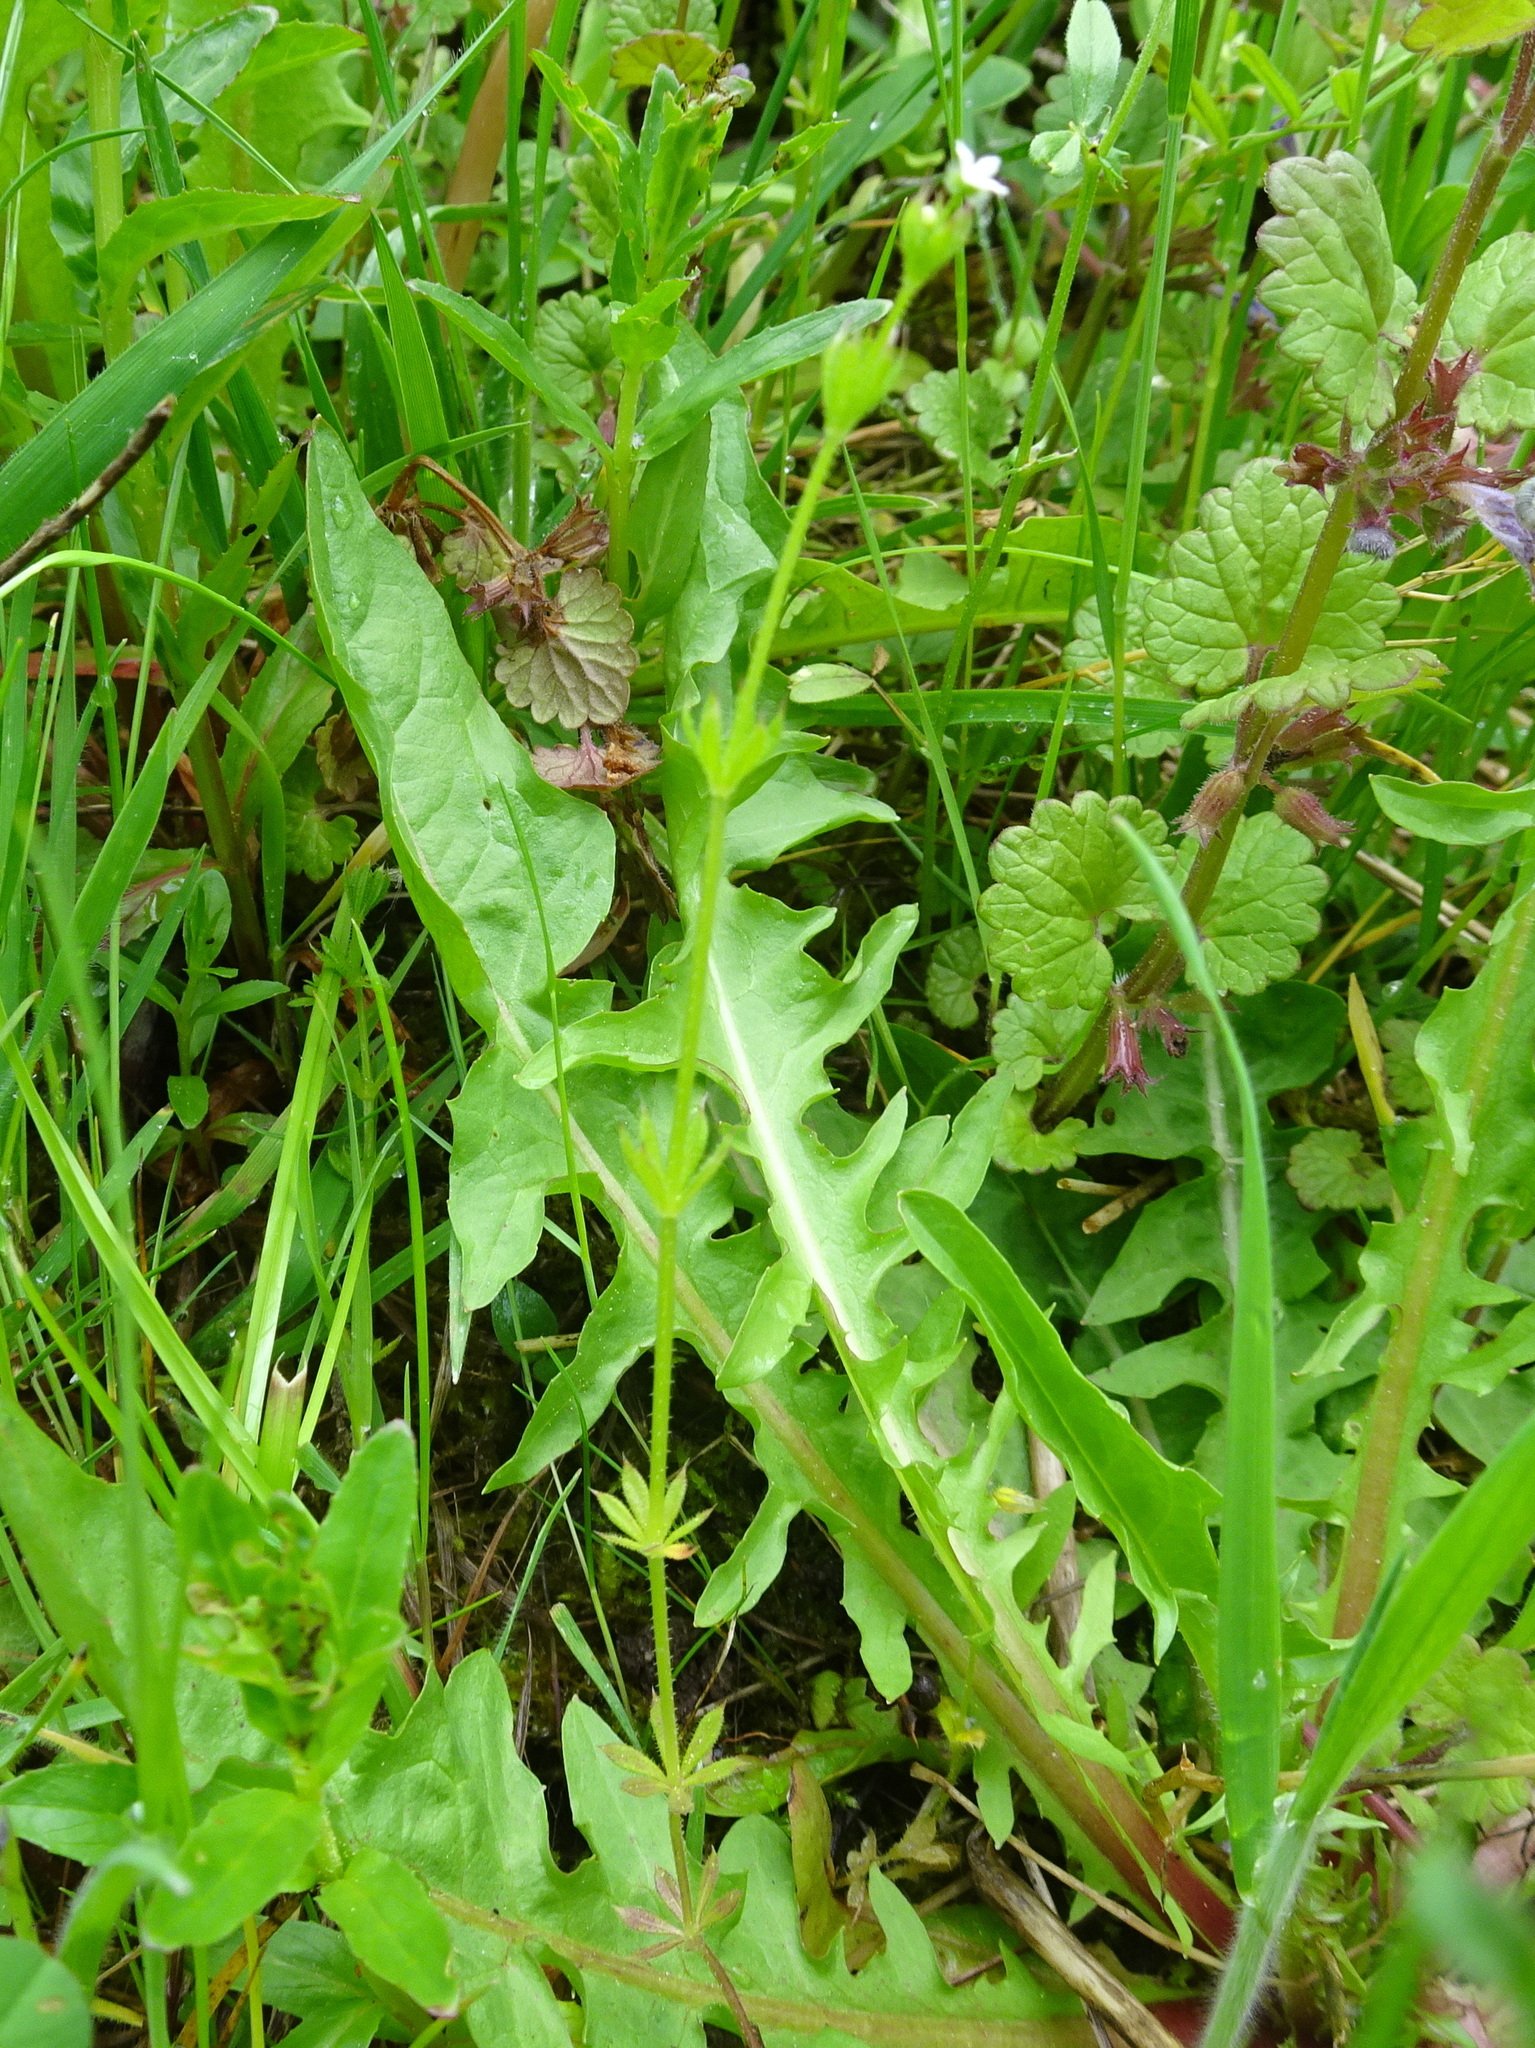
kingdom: Plantae
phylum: Tracheophyta
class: Magnoliopsida
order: Gentianales
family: Rubiaceae
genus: Sherardia
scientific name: Sherardia arvensis
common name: Field madder
